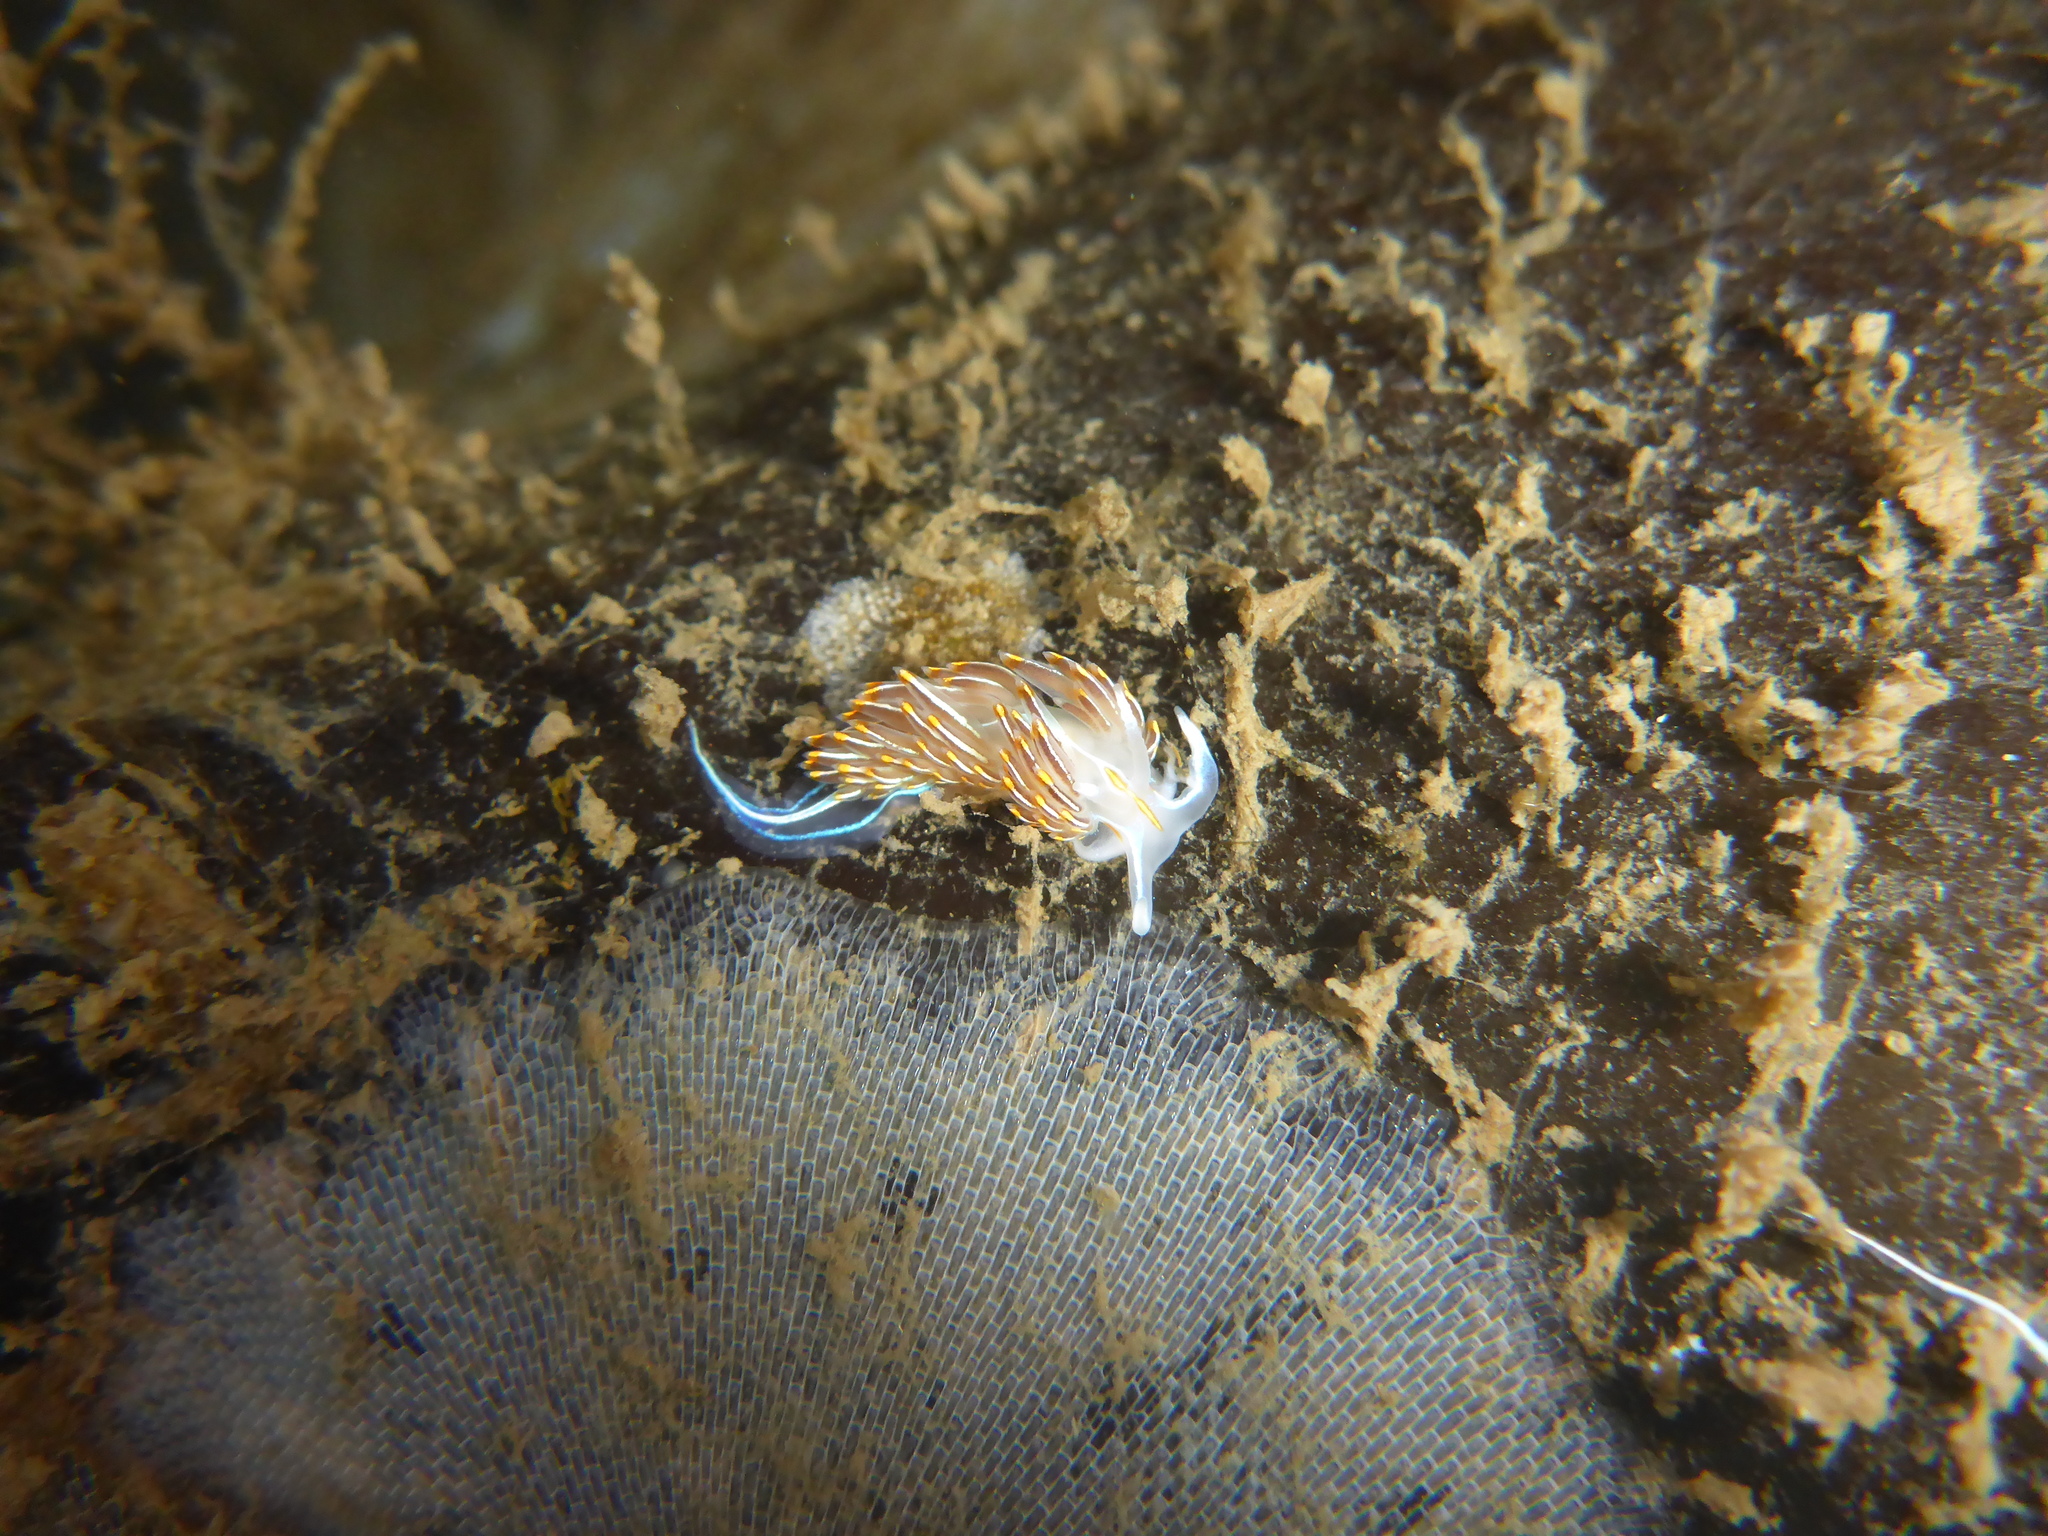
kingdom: Animalia
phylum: Mollusca
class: Gastropoda
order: Nudibranchia
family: Myrrhinidae
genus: Hermissenda
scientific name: Hermissenda crassicornis
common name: Hermissenda
